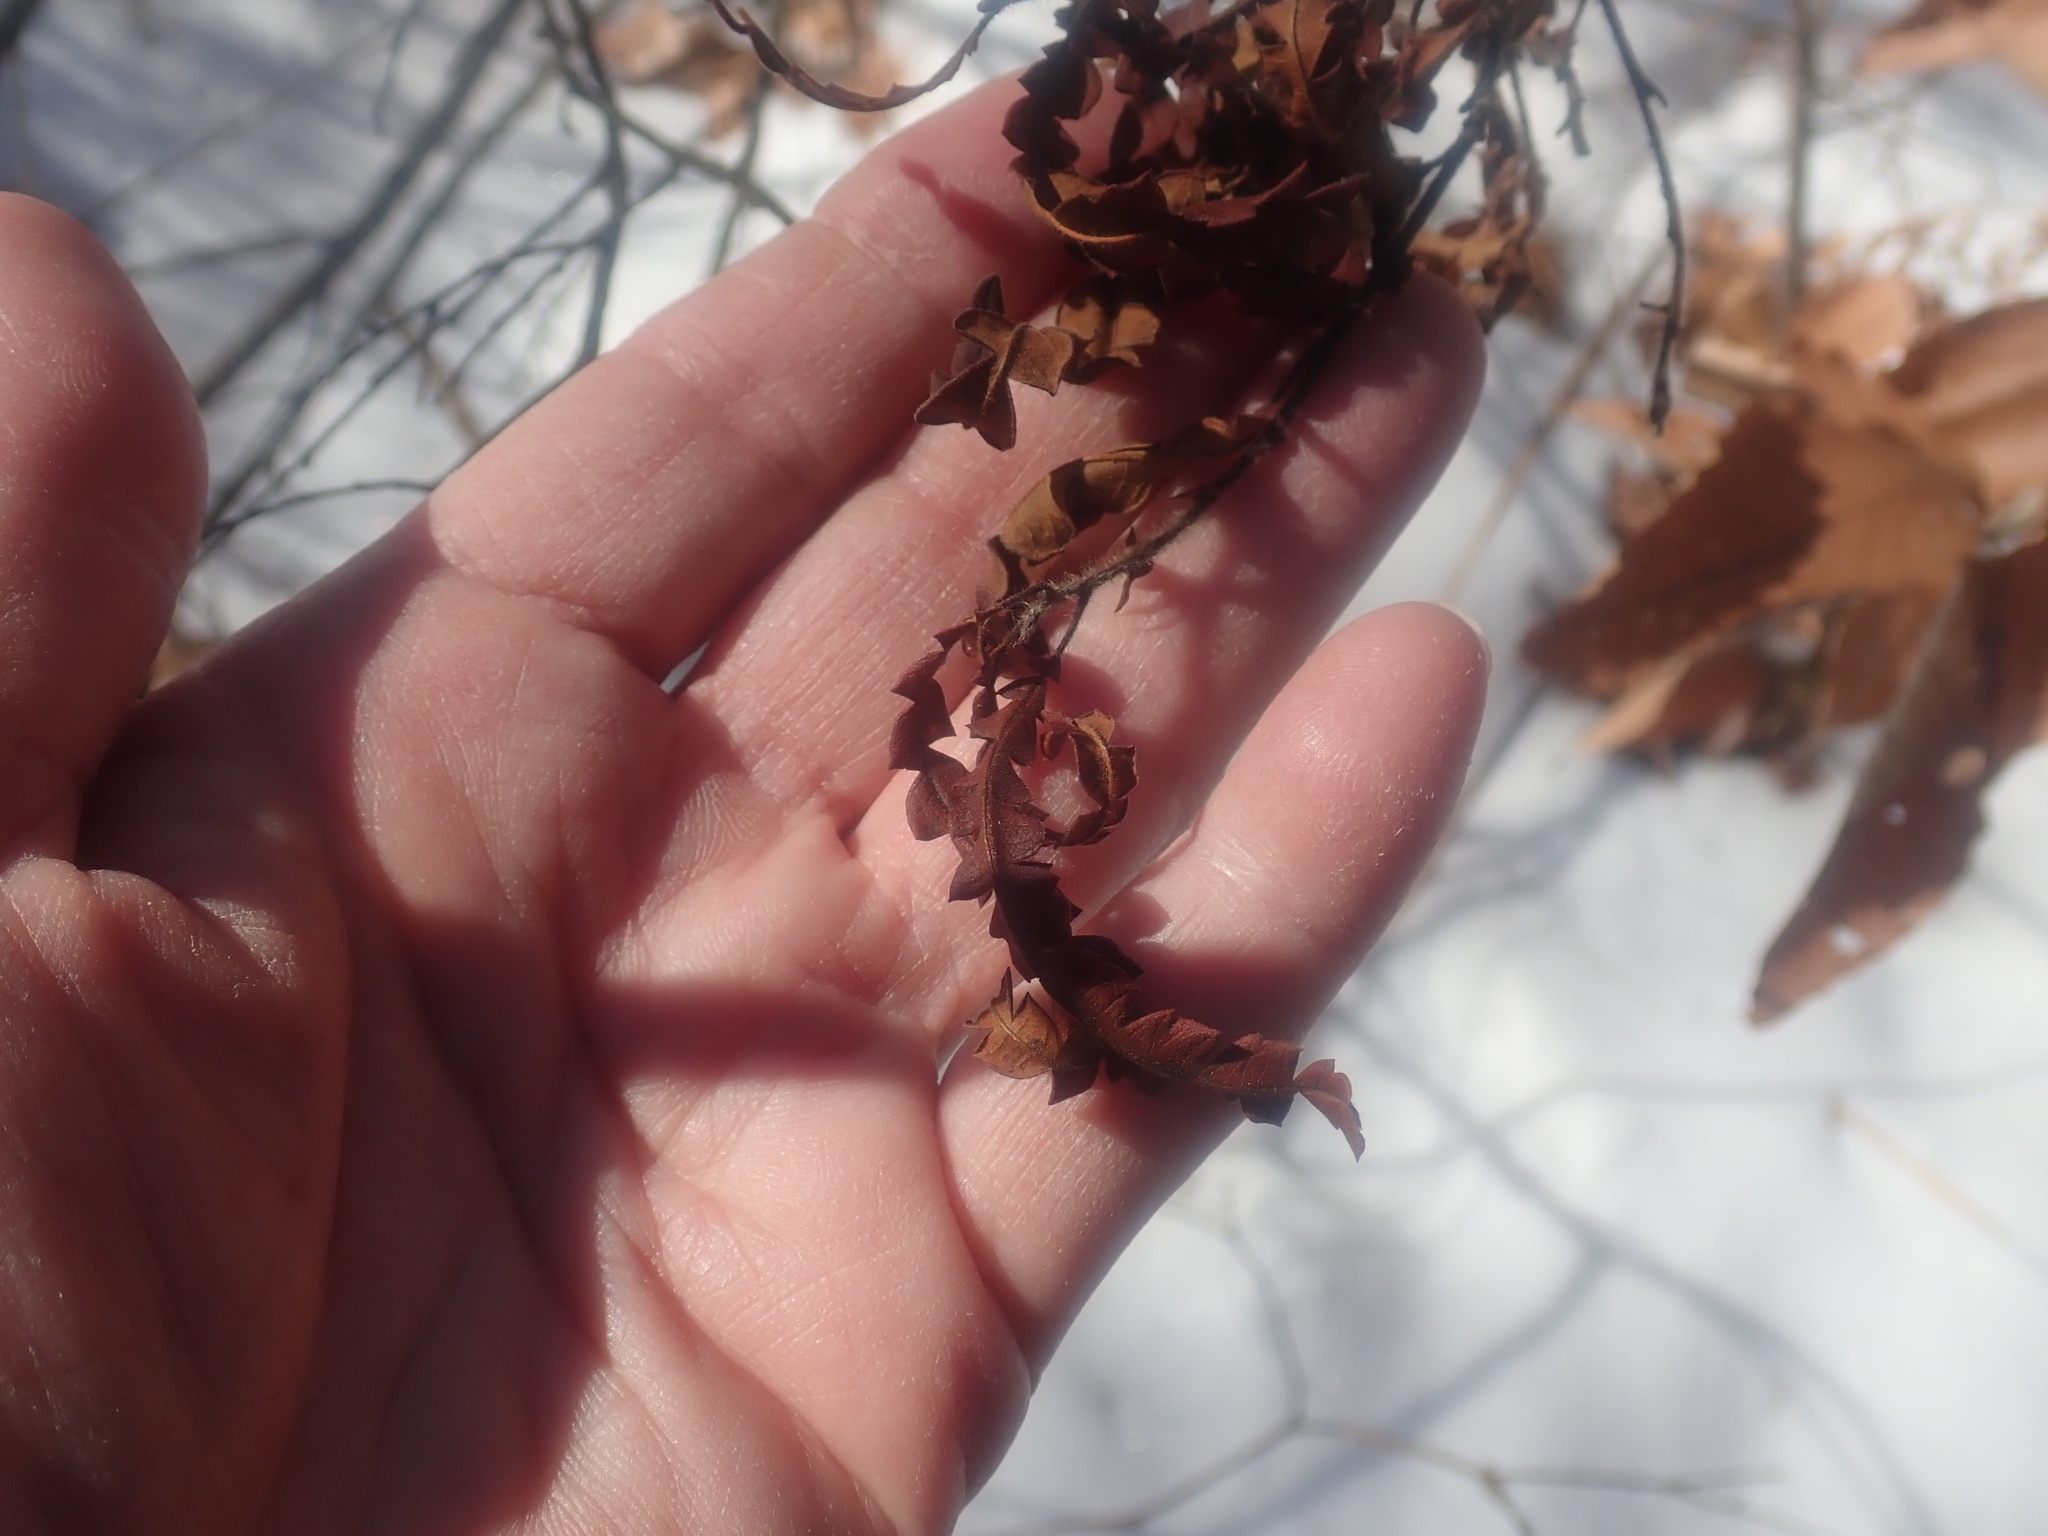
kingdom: Plantae
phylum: Tracheophyta
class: Magnoliopsida
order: Fagales
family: Myricaceae
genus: Comptonia
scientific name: Comptonia peregrina
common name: Sweet-fern
